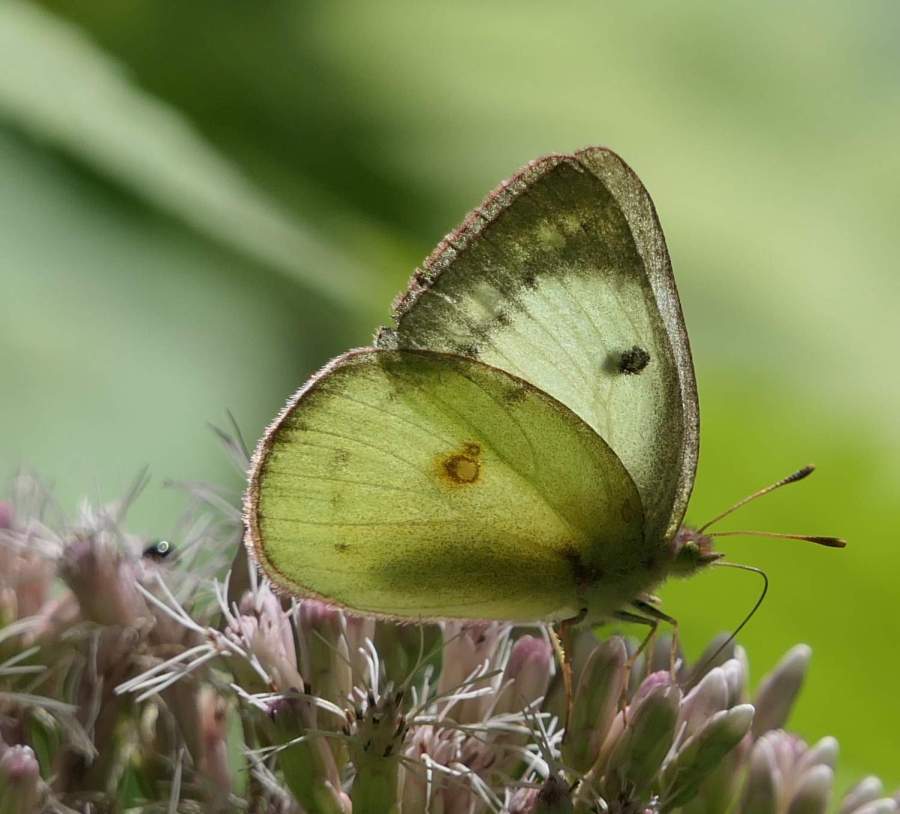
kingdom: Animalia
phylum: Arthropoda
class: Insecta
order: Lepidoptera
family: Pieridae
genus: Colias
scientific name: Colias philodice
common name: Clouded sulphur
